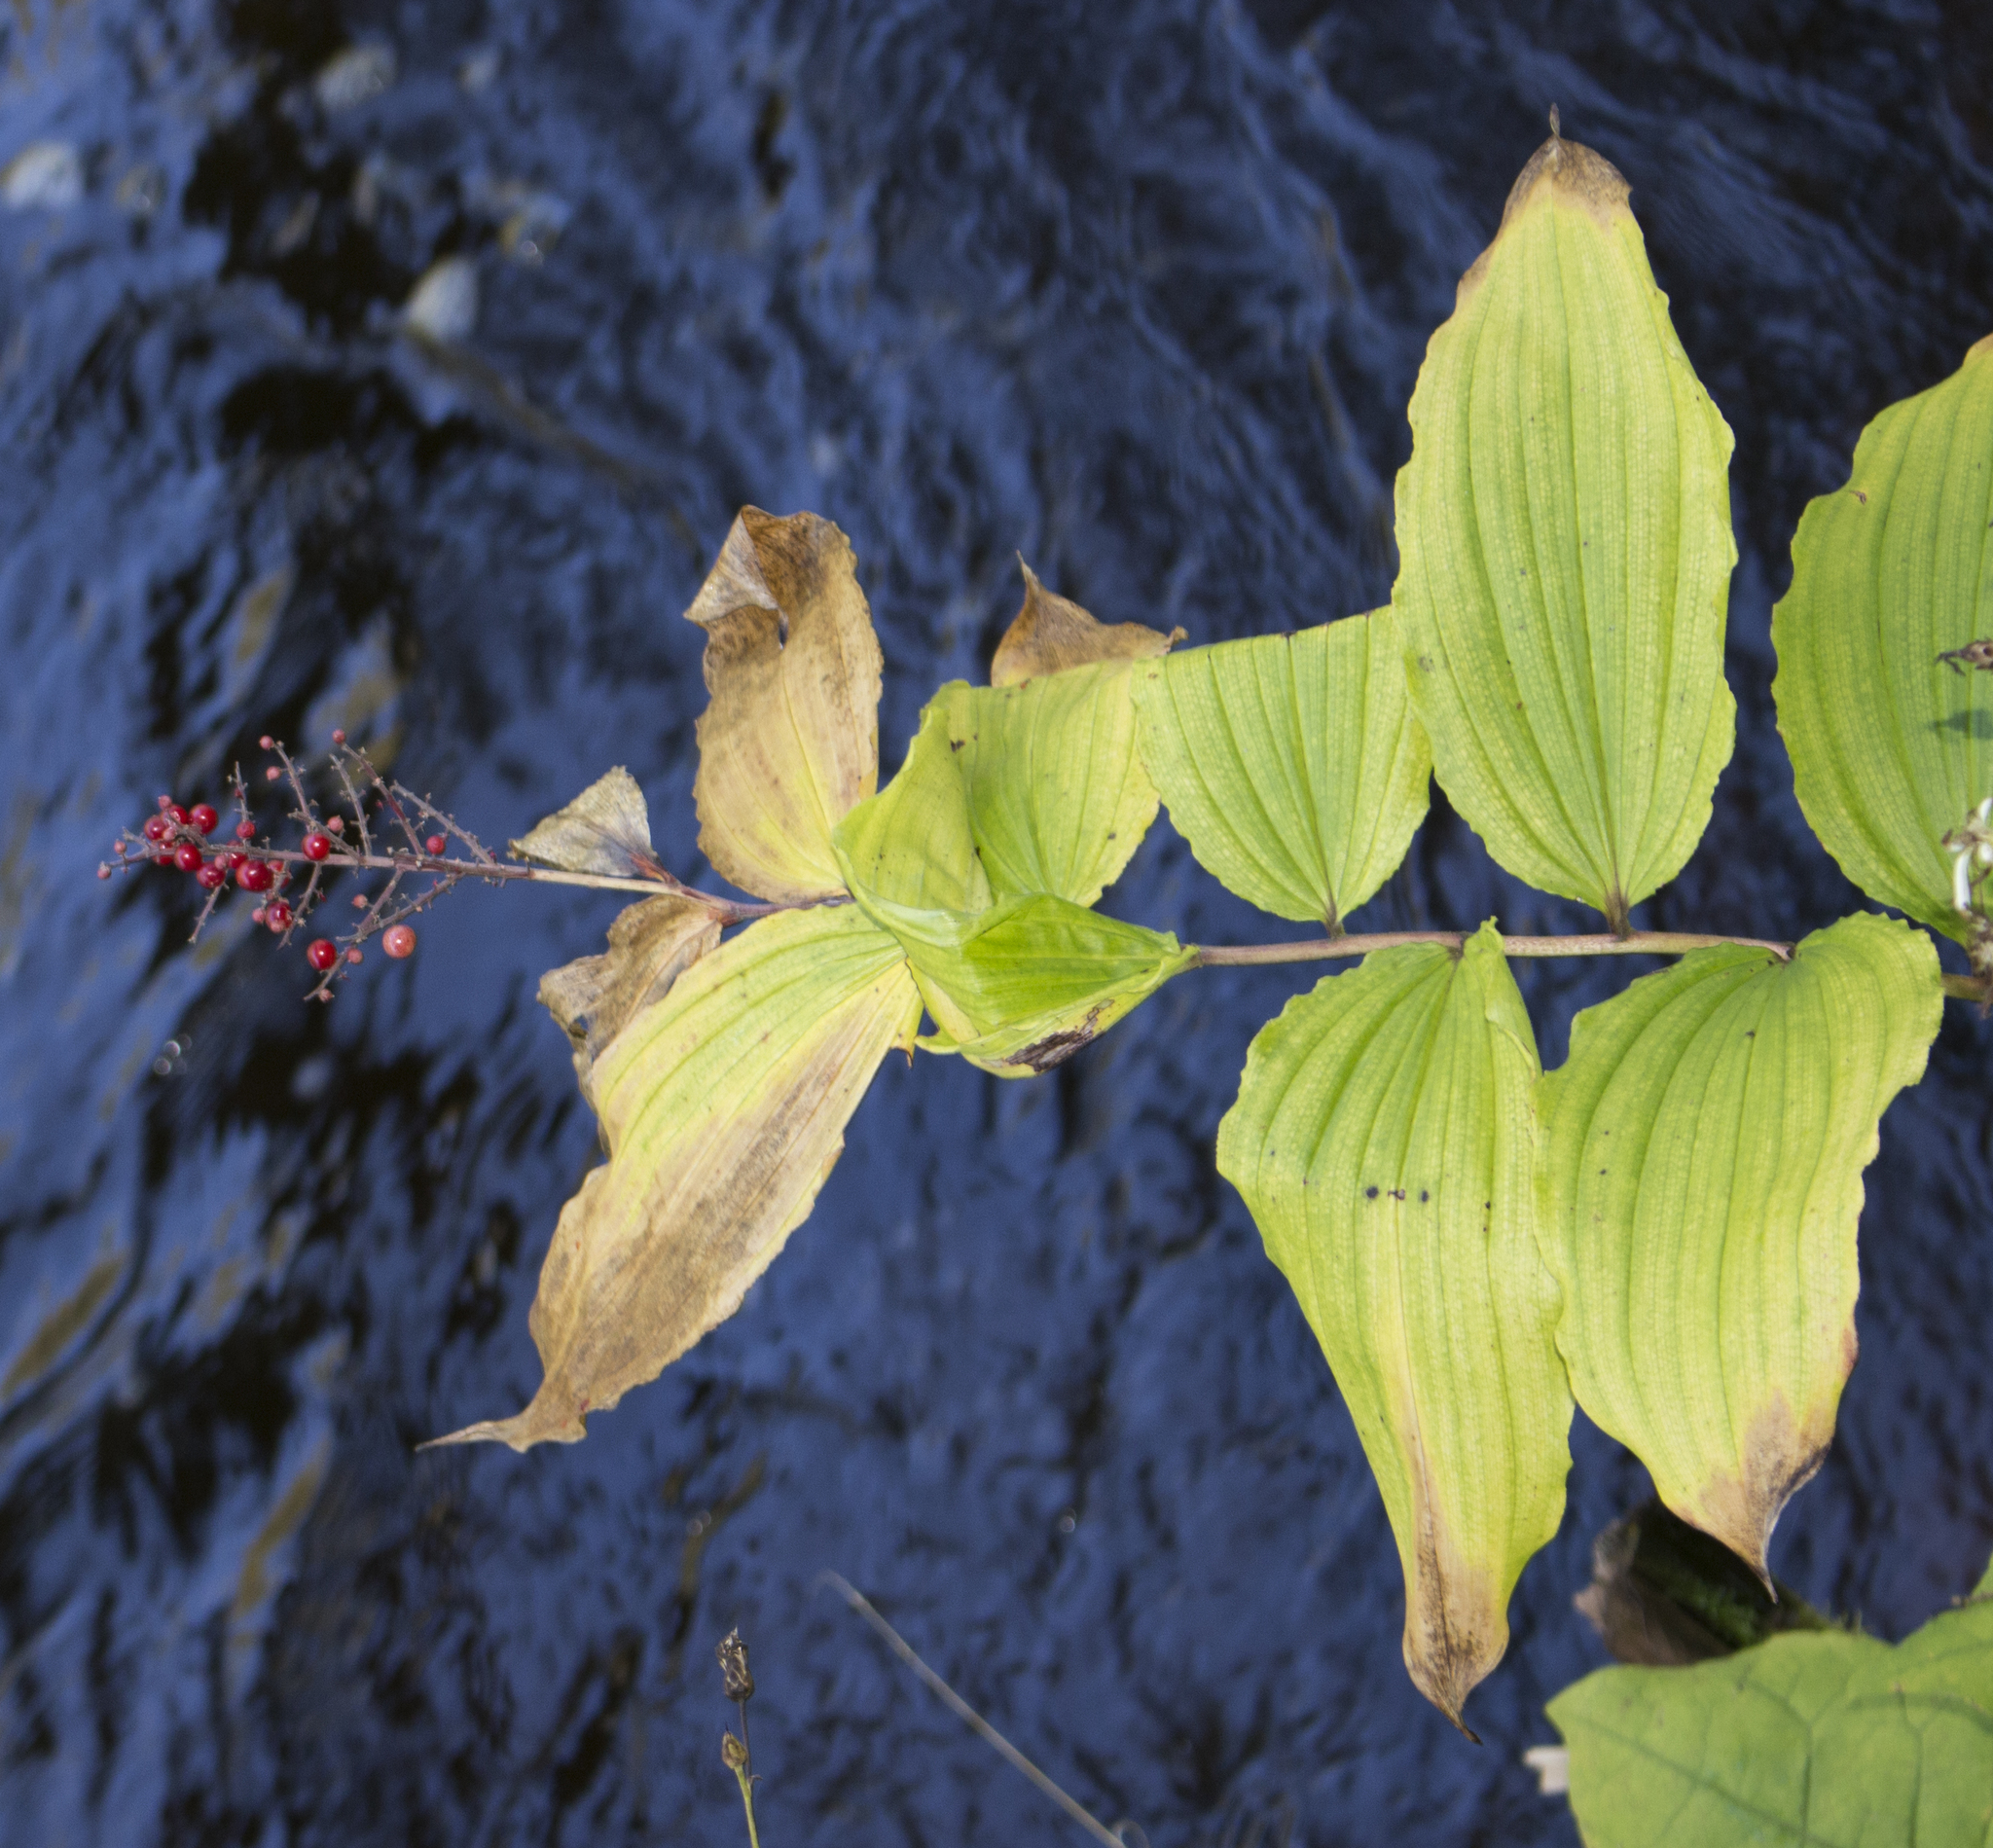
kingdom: Plantae
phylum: Tracheophyta
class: Liliopsida
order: Asparagales
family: Asparagaceae
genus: Maianthemum
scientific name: Maianthemum racemosum
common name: False spikenard
